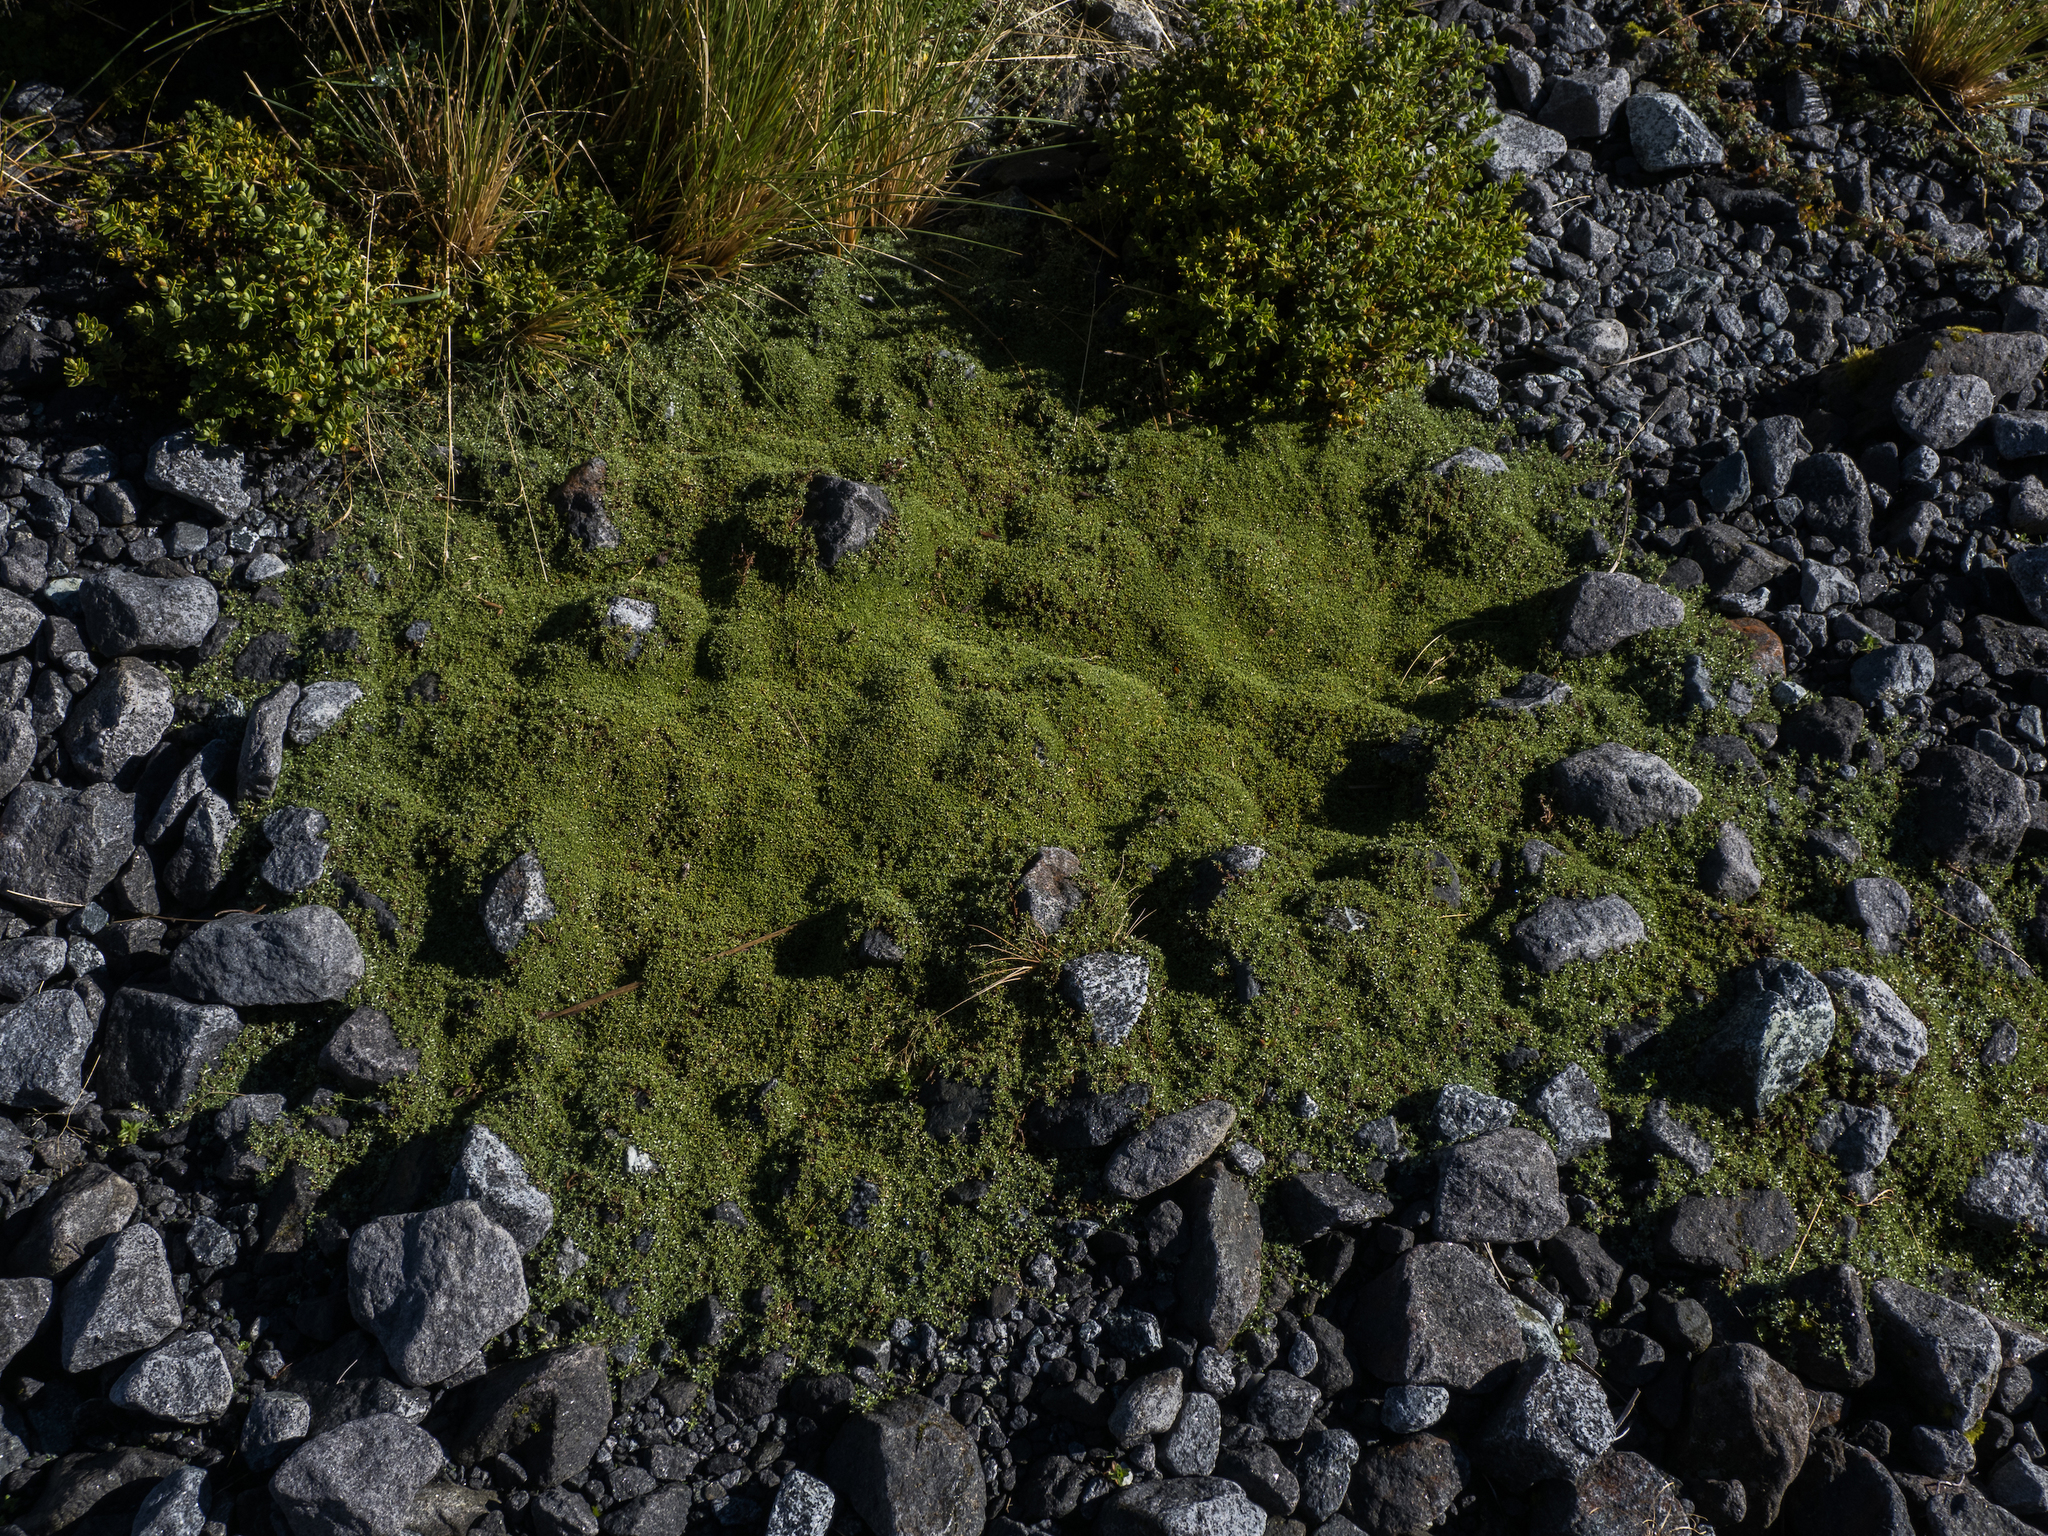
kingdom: Plantae
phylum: Tracheophyta
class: Magnoliopsida
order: Asterales
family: Asteraceae
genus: Raoulia
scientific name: Raoulia tenuicaulis
